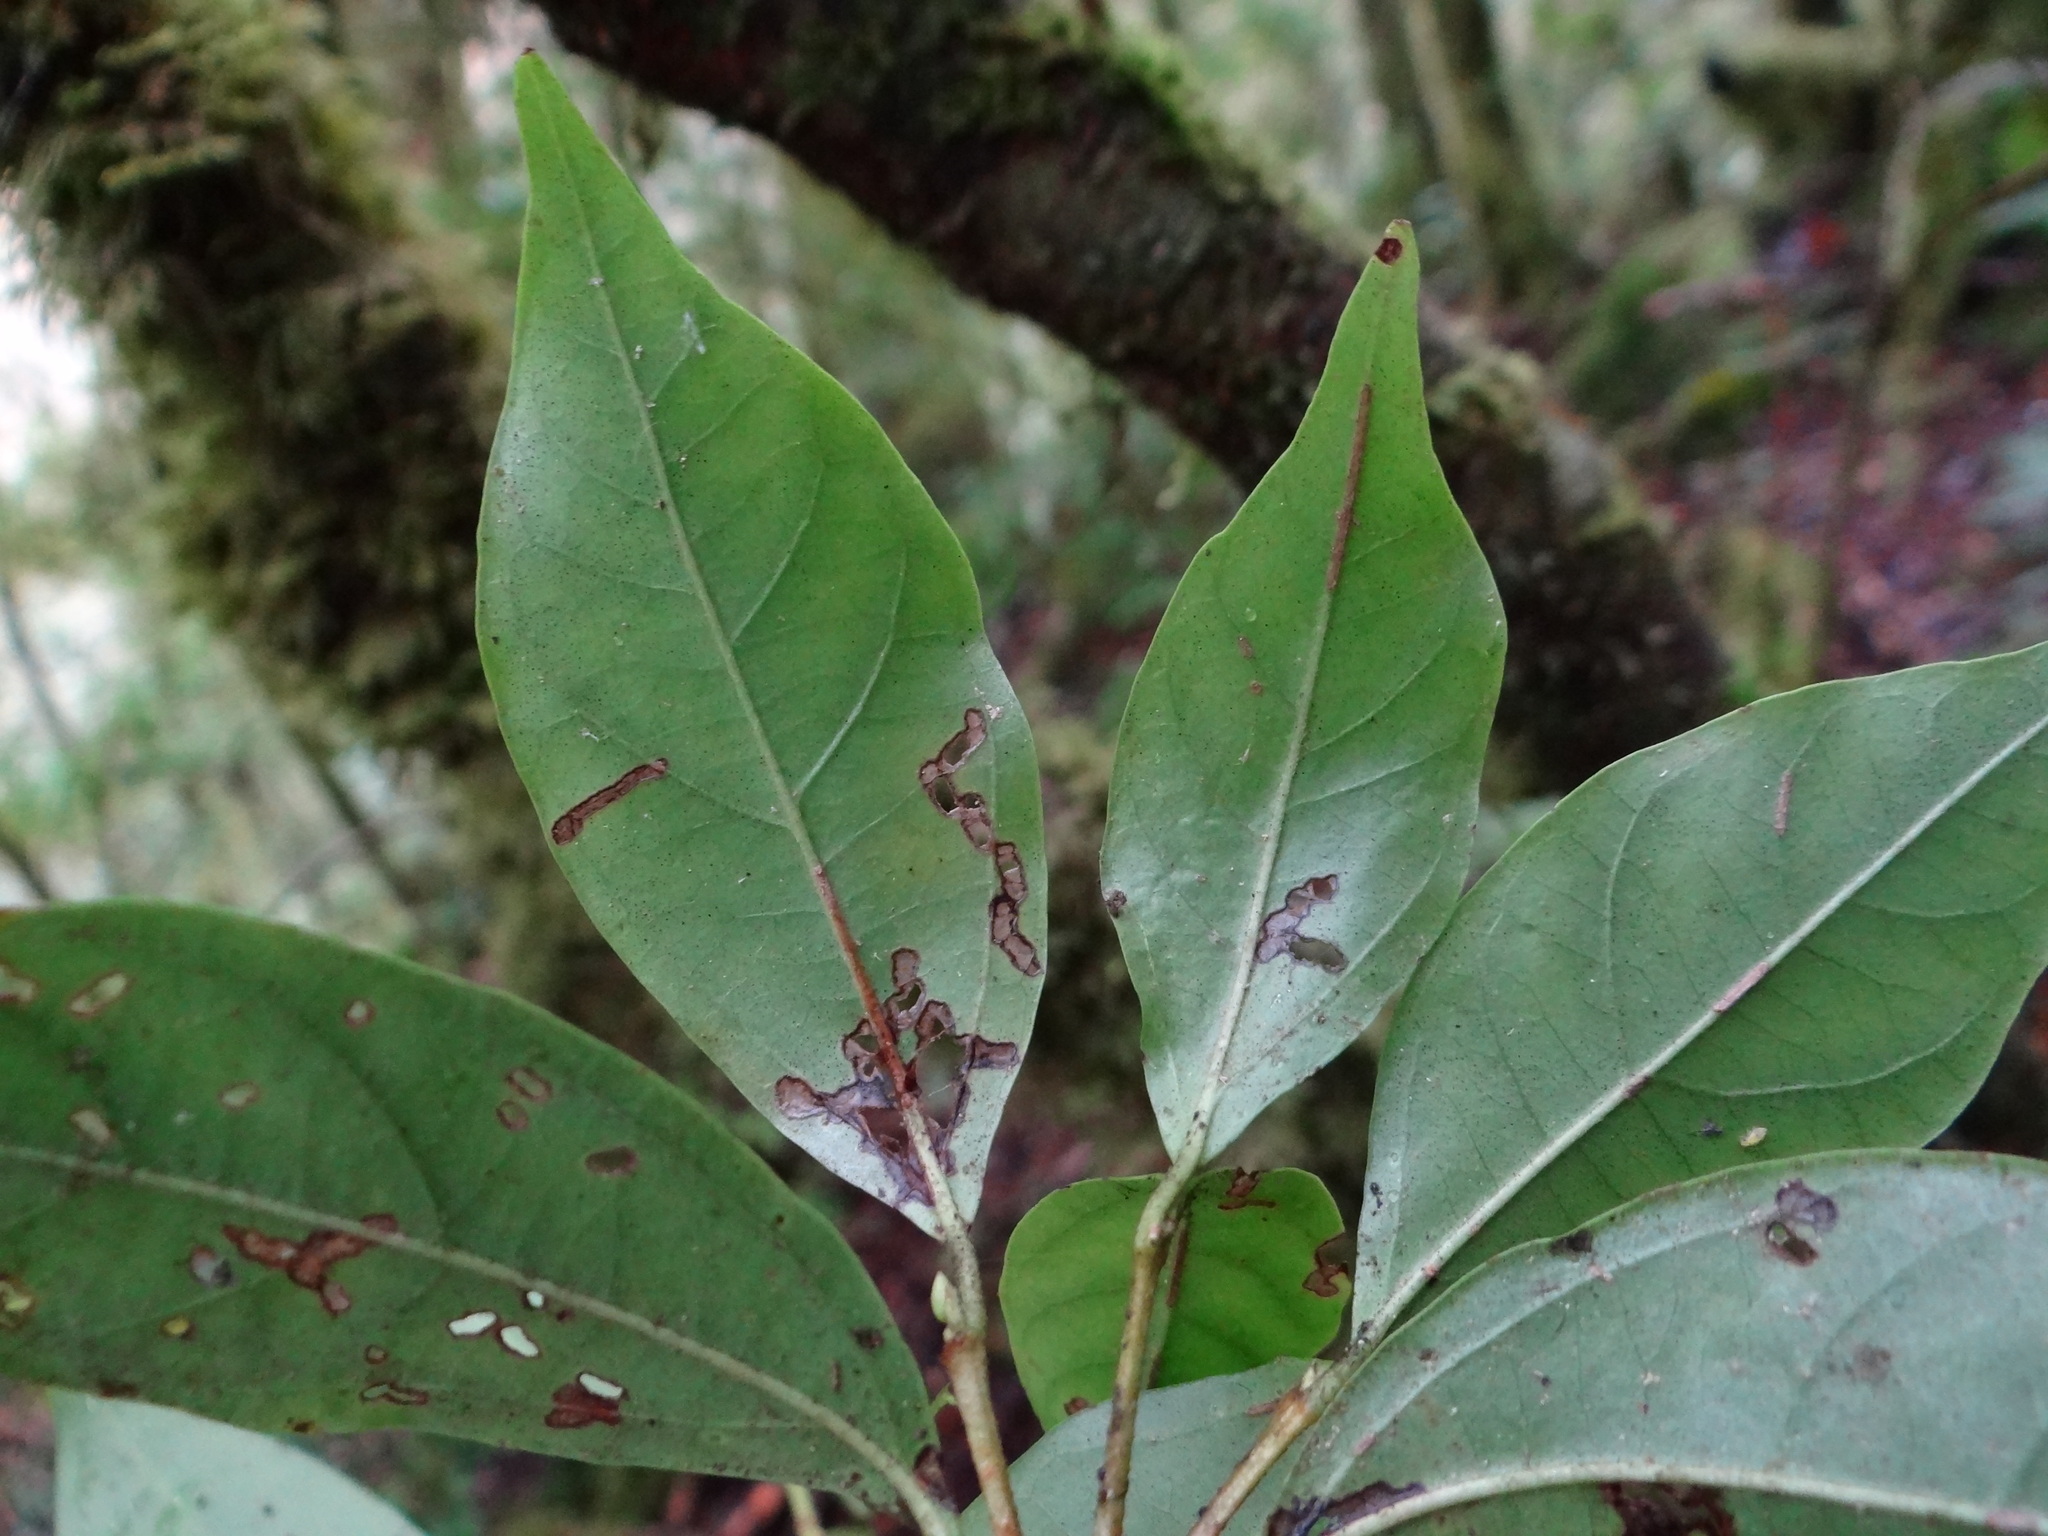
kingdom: Plantae
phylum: Tracheophyta
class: Magnoliopsida
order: Dipsacales
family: Viburnaceae
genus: Viburnum
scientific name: Viburnum integrifolium
